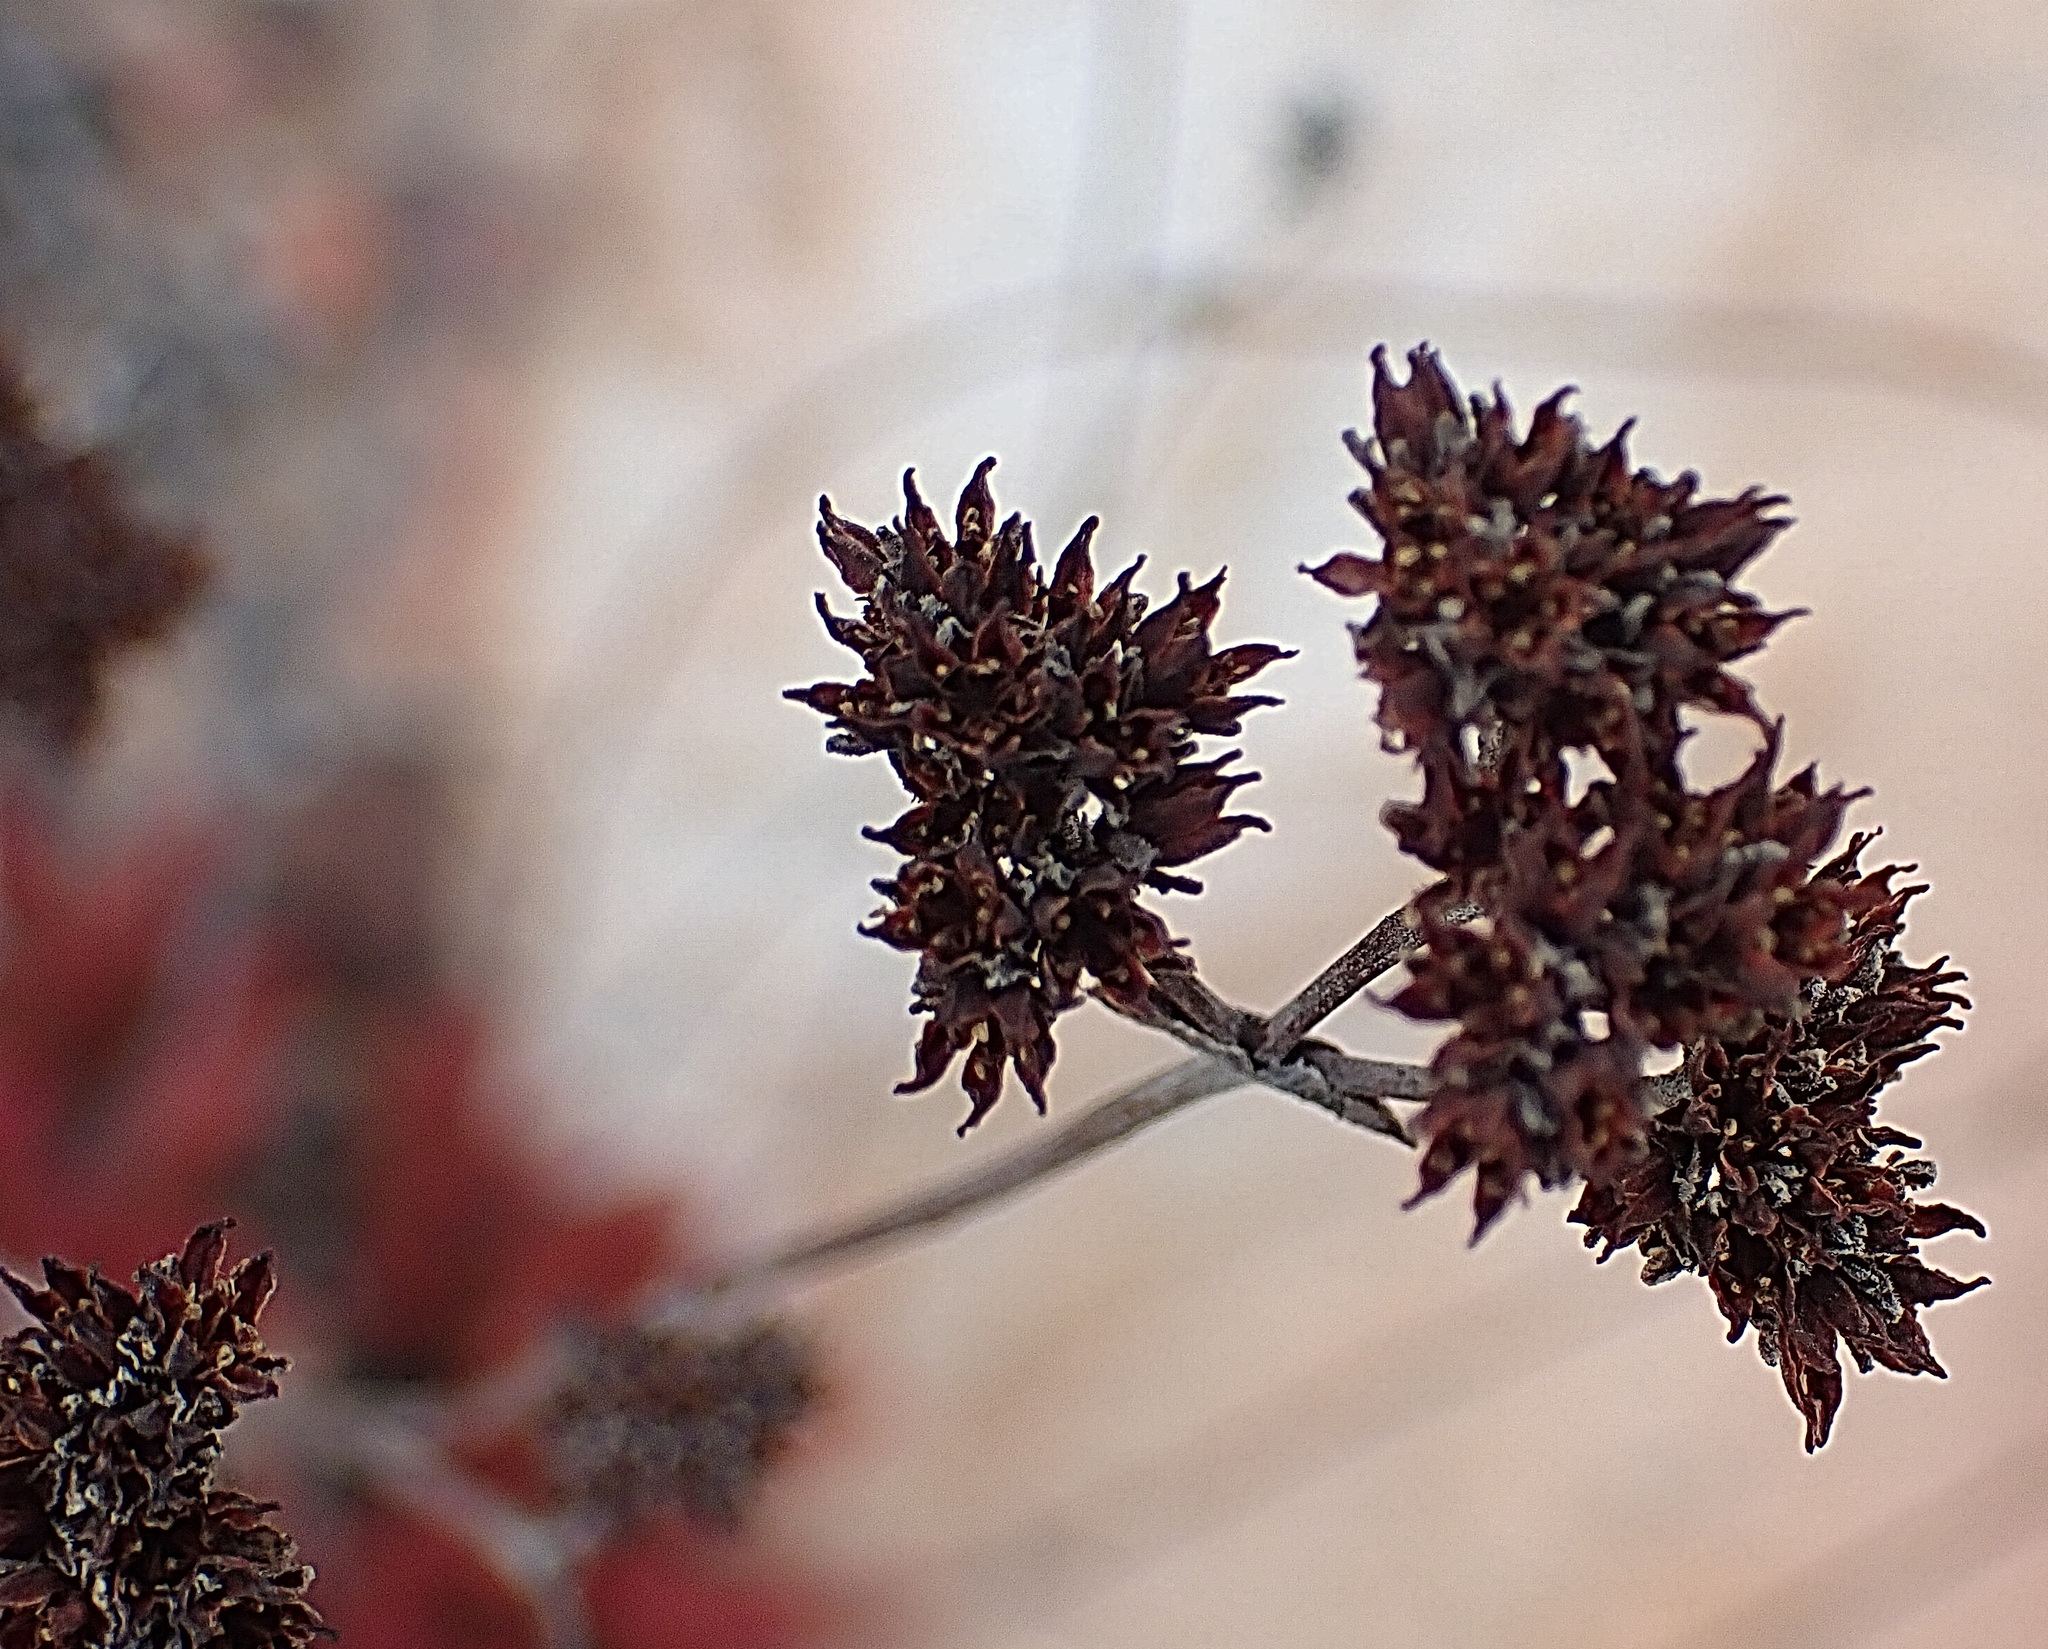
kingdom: Plantae
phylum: Tracheophyta
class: Magnoliopsida
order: Saxifragales
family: Crassulaceae
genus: Crassula
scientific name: Crassula atropurpurea
